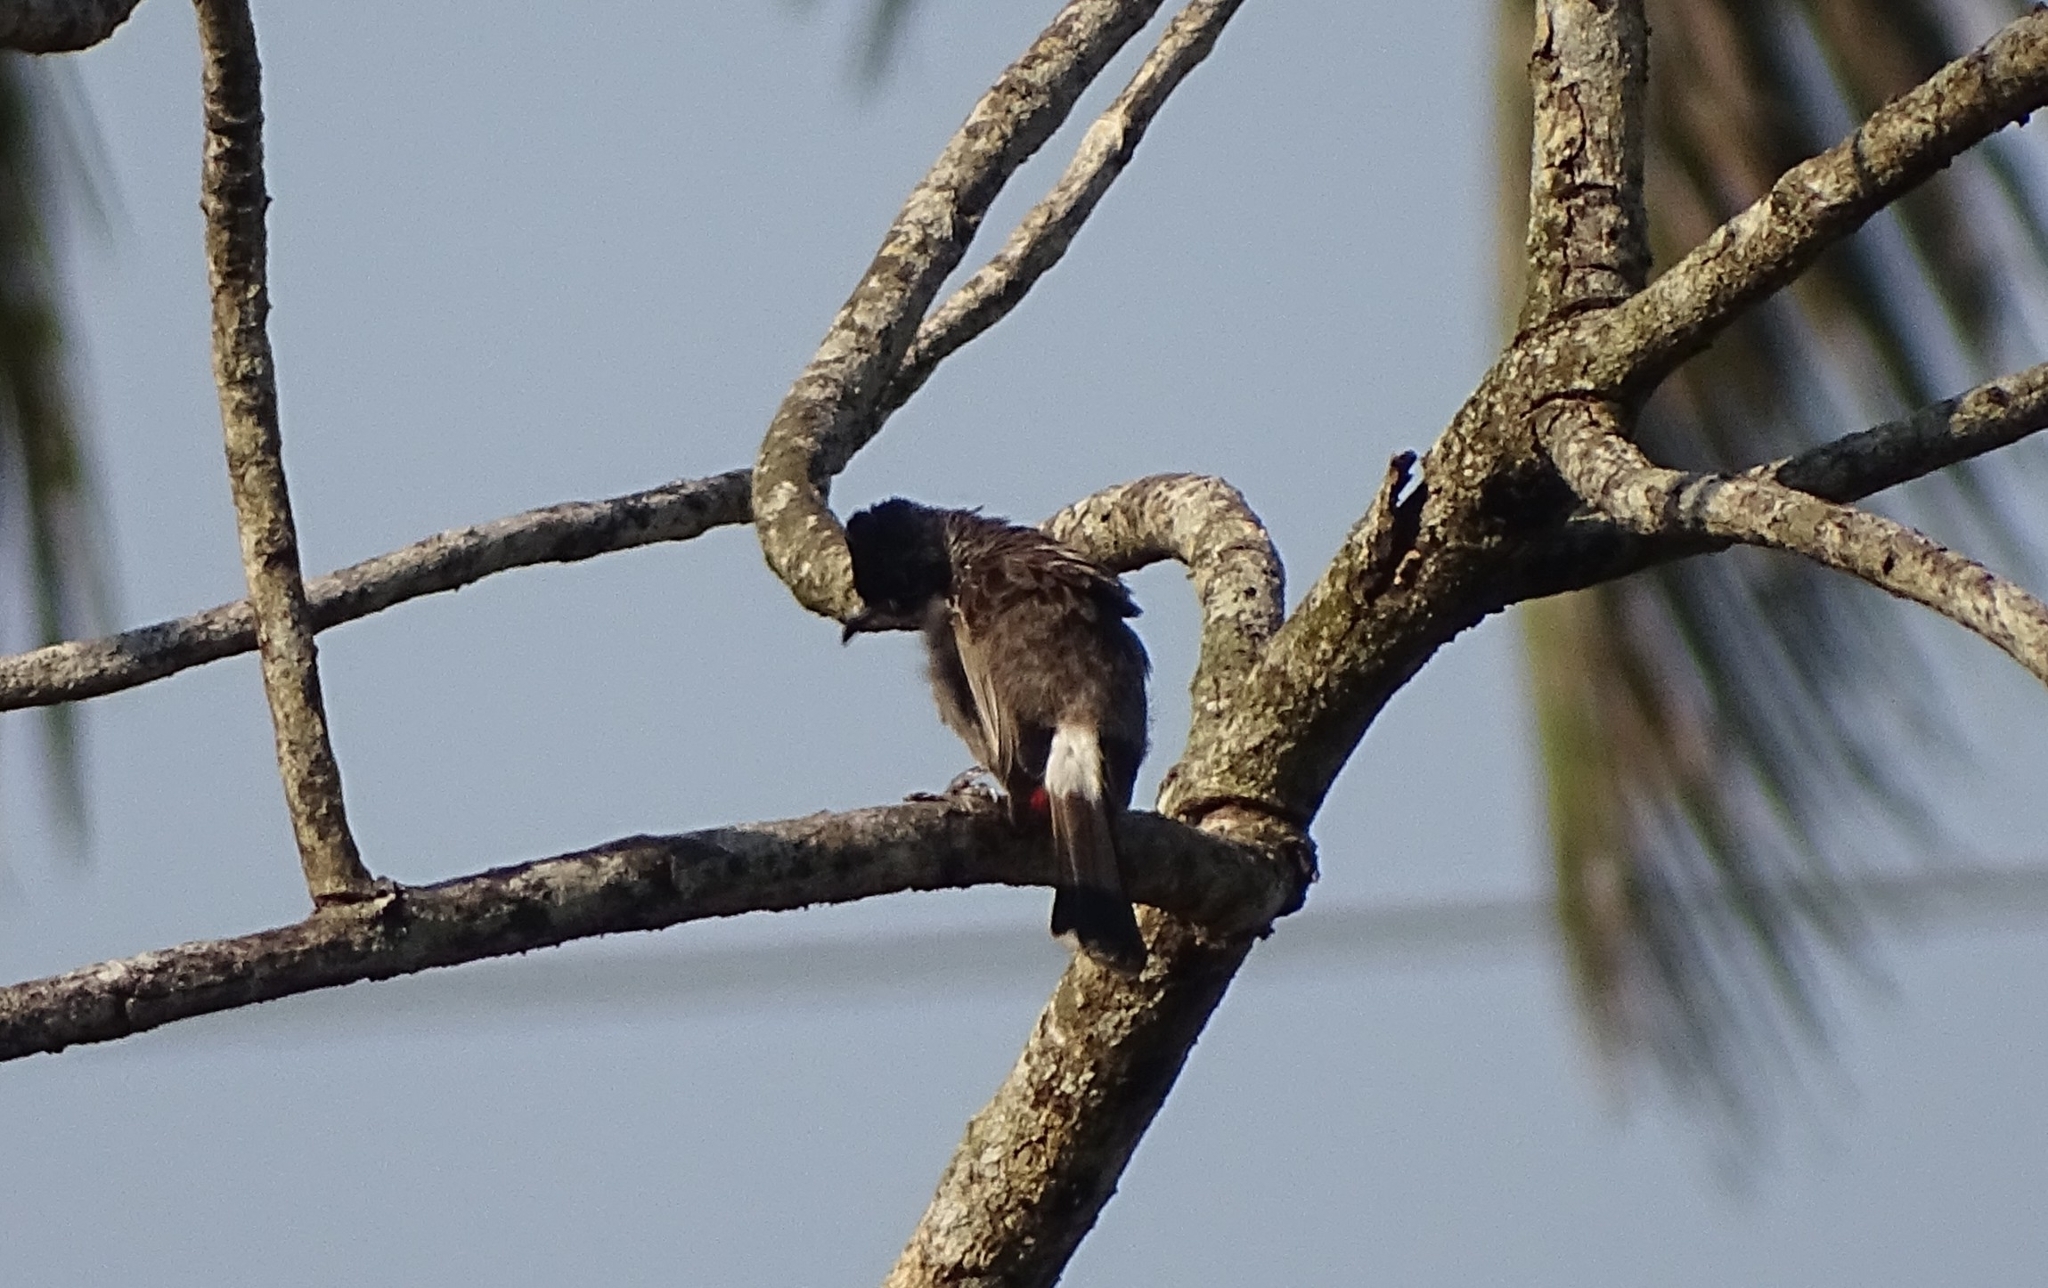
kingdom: Animalia
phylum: Chordata
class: Aves
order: Passeriformes
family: Pycnonotidae
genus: Pycnonotus
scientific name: Pycnonotus cafer
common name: Red-vented bulbul
